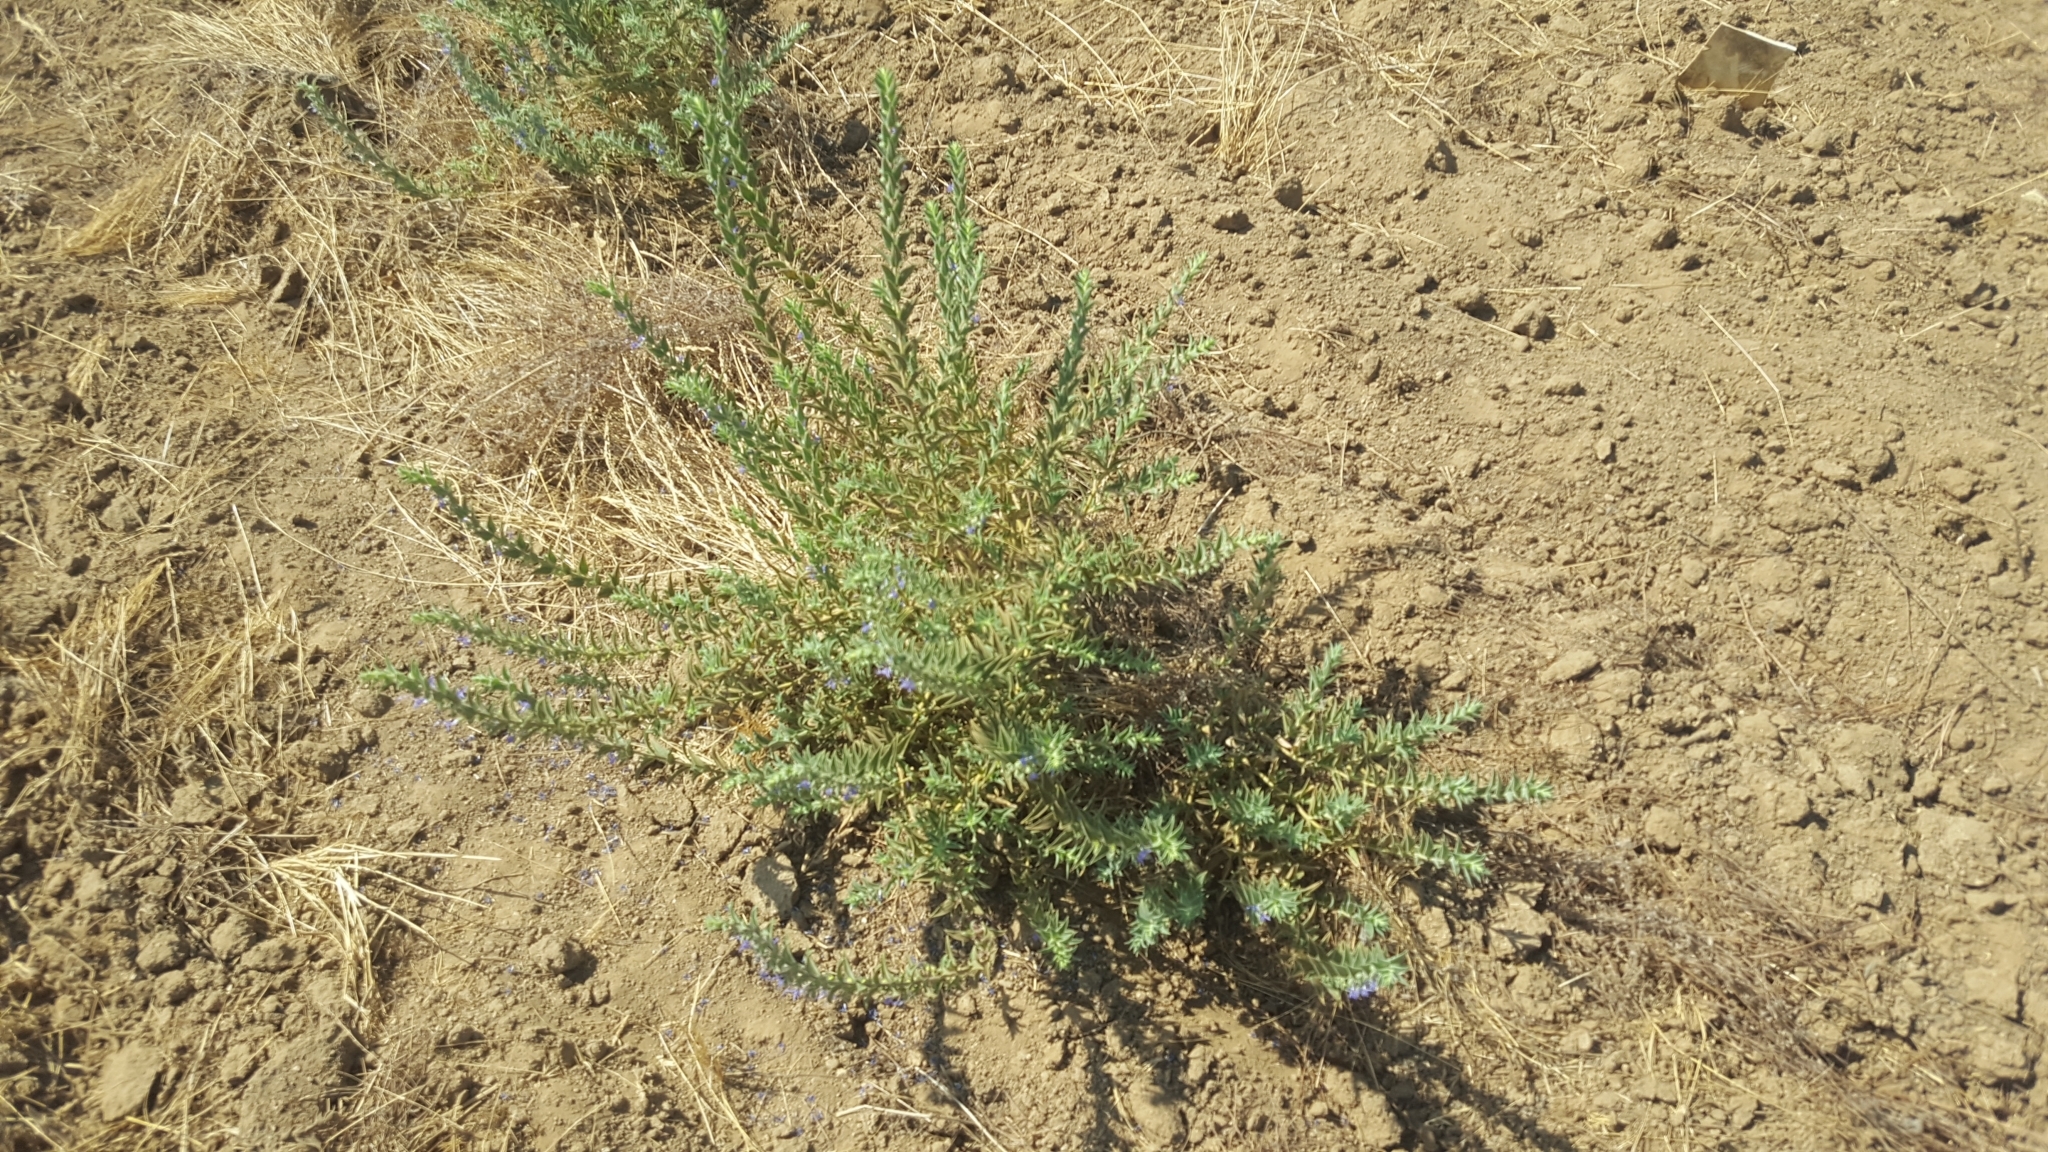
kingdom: Plantae
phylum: Tracheophyta
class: Magnoliopsida
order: Lamiales
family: Lamiaceae
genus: Trichostema
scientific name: Trichostema lanceolatum
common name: Vinegar-weed
